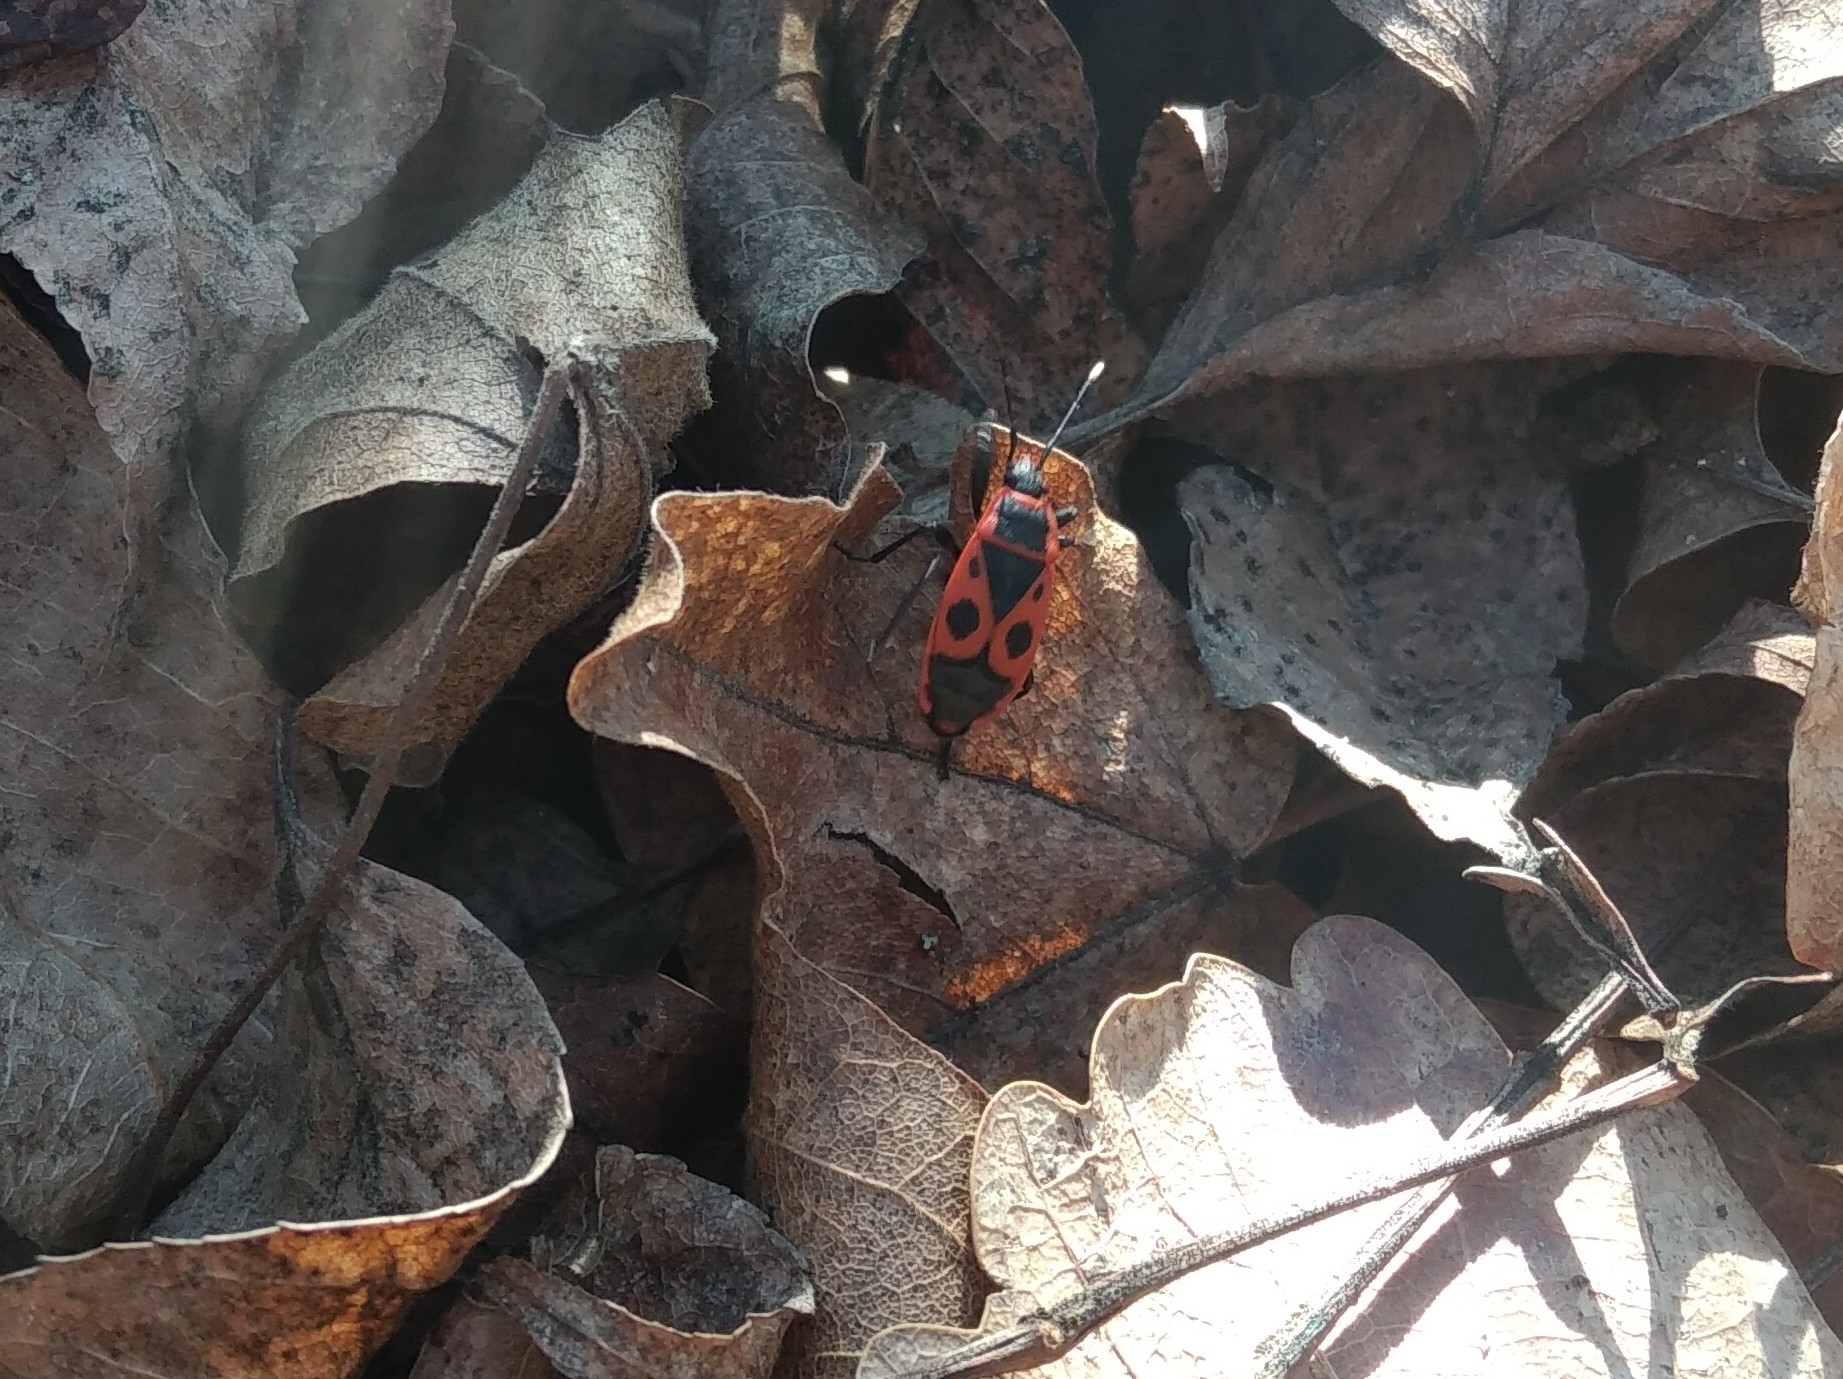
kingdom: Animalia
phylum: Arthropoda
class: Insecta
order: Hemiptera
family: Pyrrhocoridae
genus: Pyrrhocoris
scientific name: Pyrrhocoris apterus
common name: Firebug
